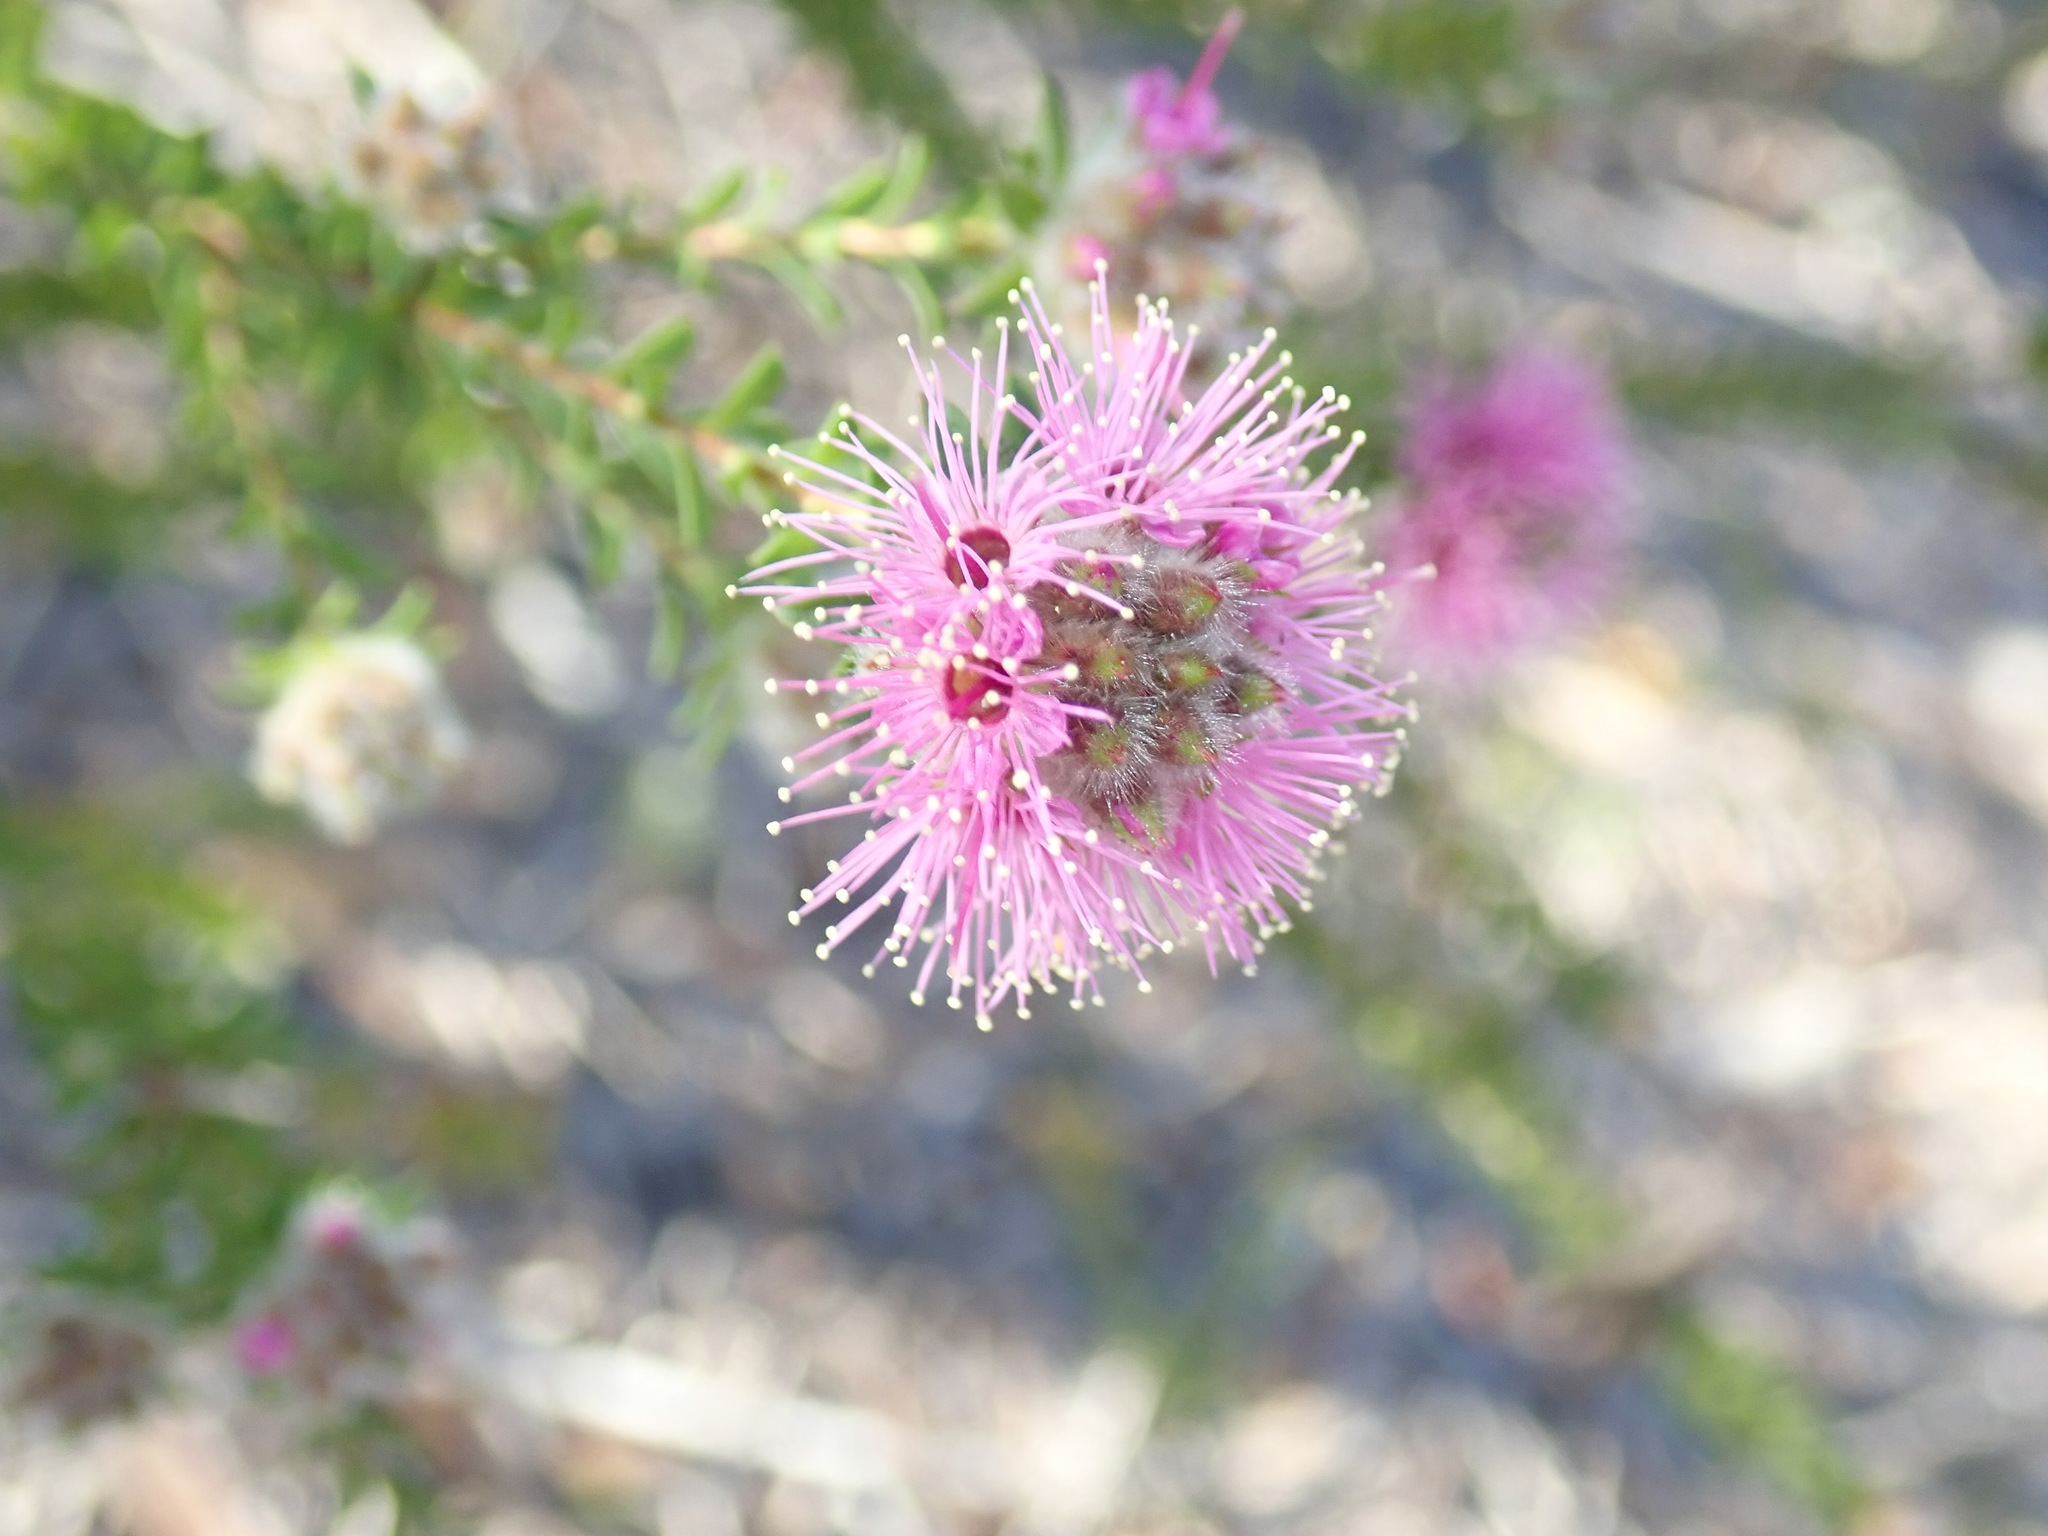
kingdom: Plantae
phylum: Tracheophyta
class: Magnoliopsida
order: Myrtales
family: Myrtaceae
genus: Kunzea
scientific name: Kunzea capitata
